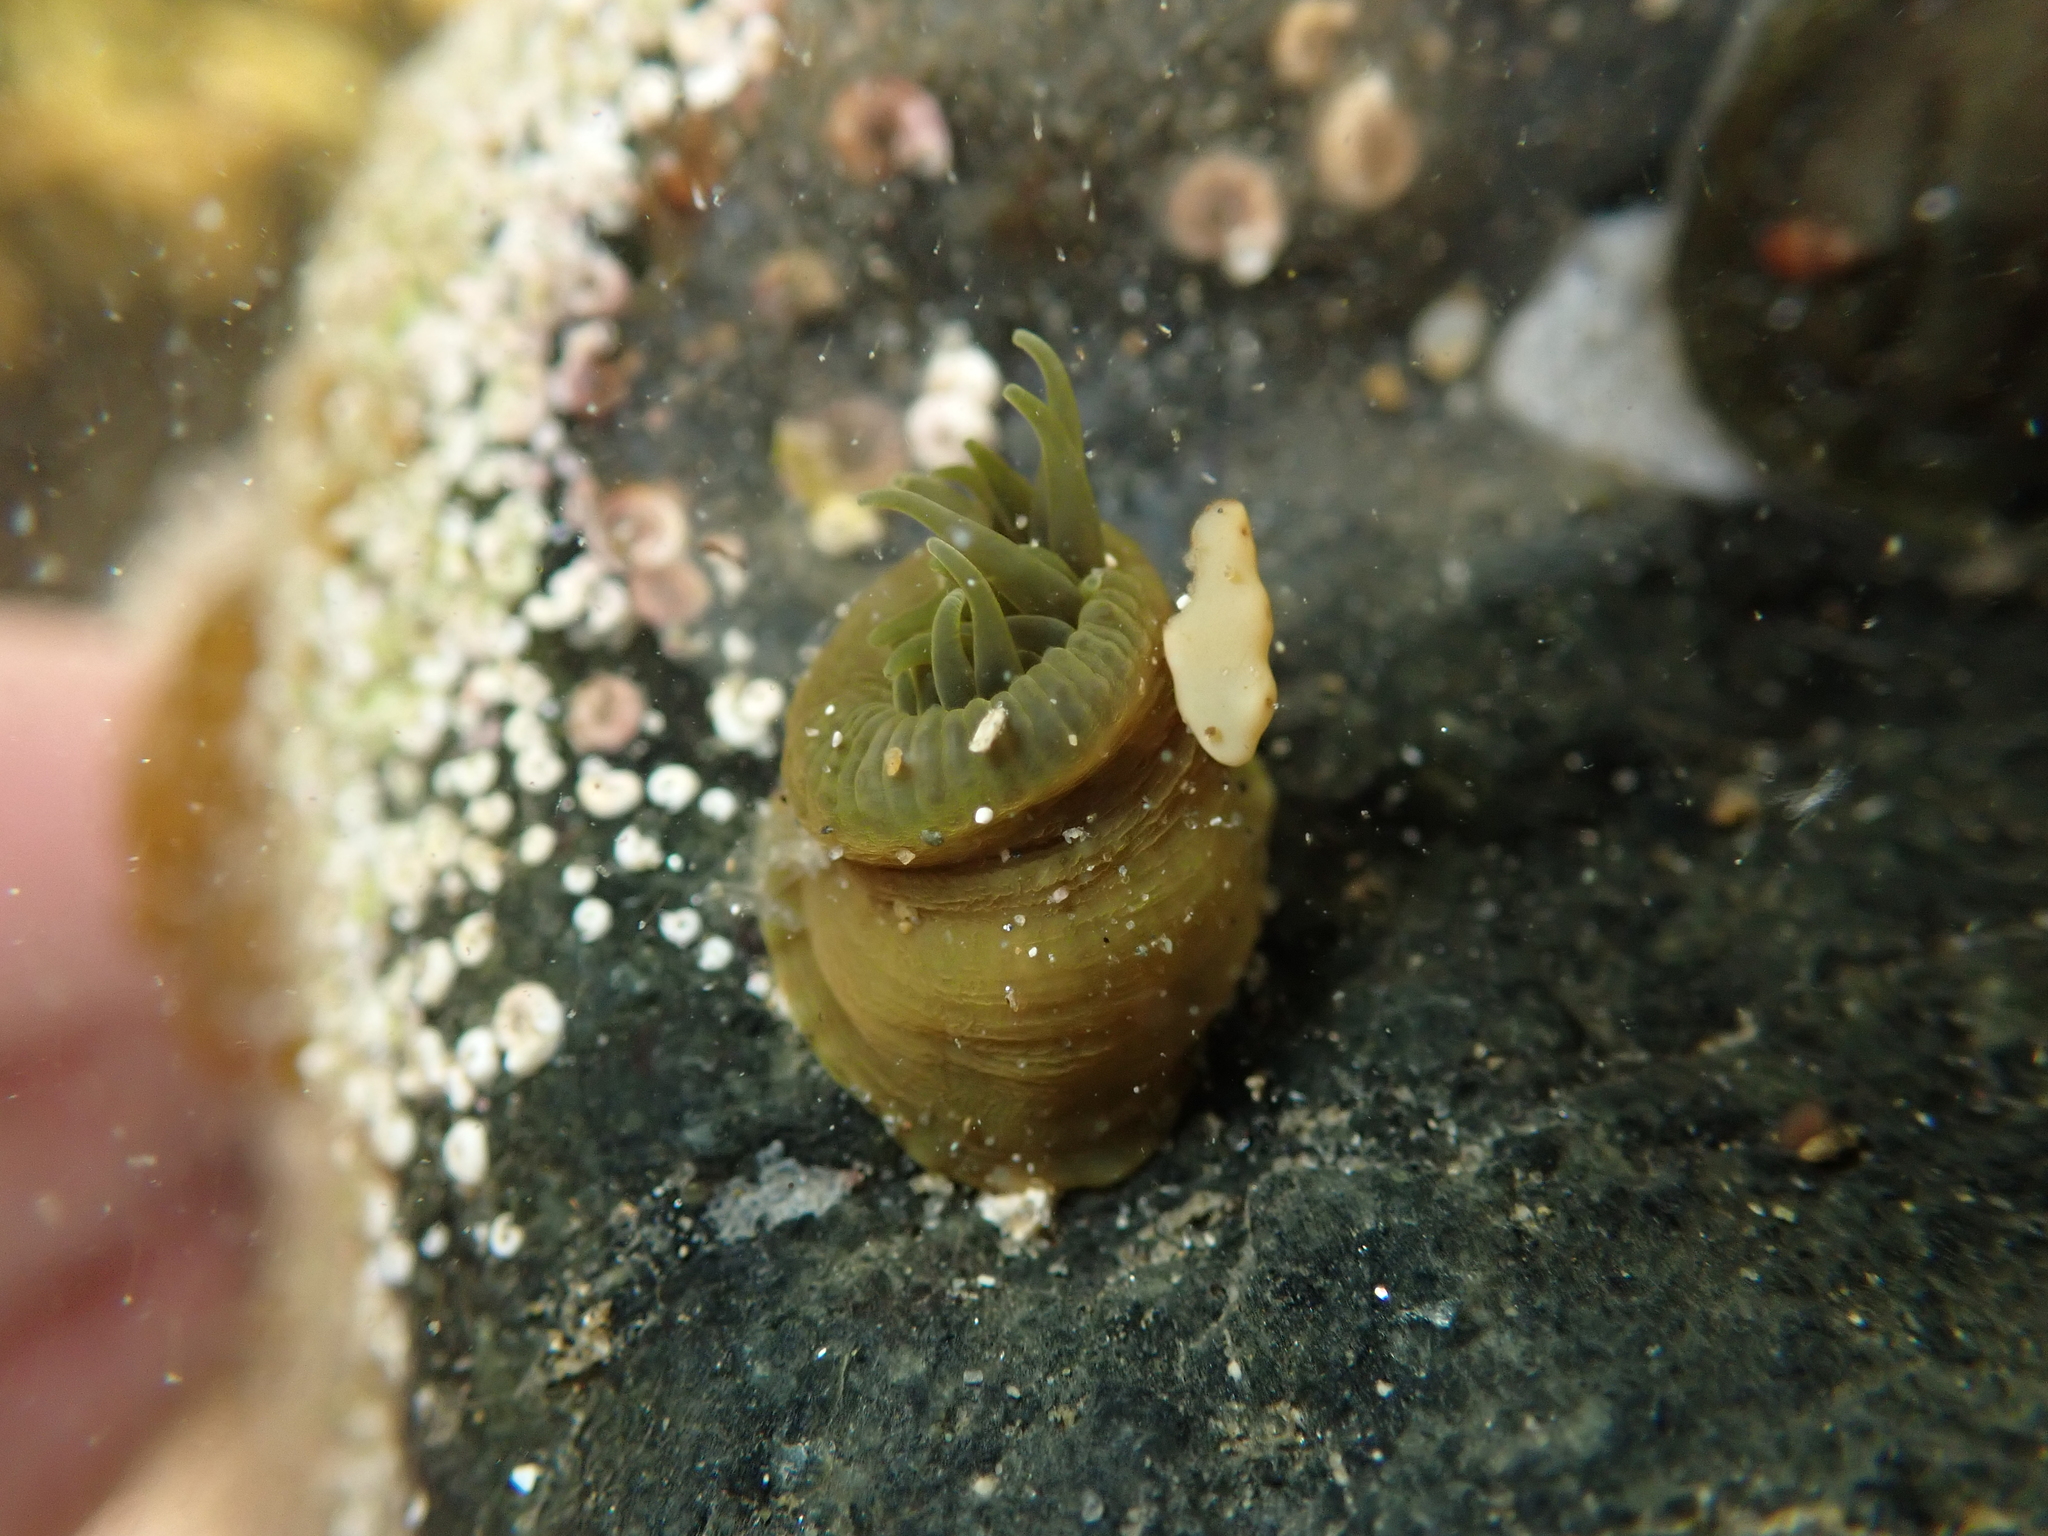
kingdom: Animalia
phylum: Cnidaria
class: Anthozoa
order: Actiniaria
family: Actiniidae
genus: Isactinia
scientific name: Isactinia olivacea
